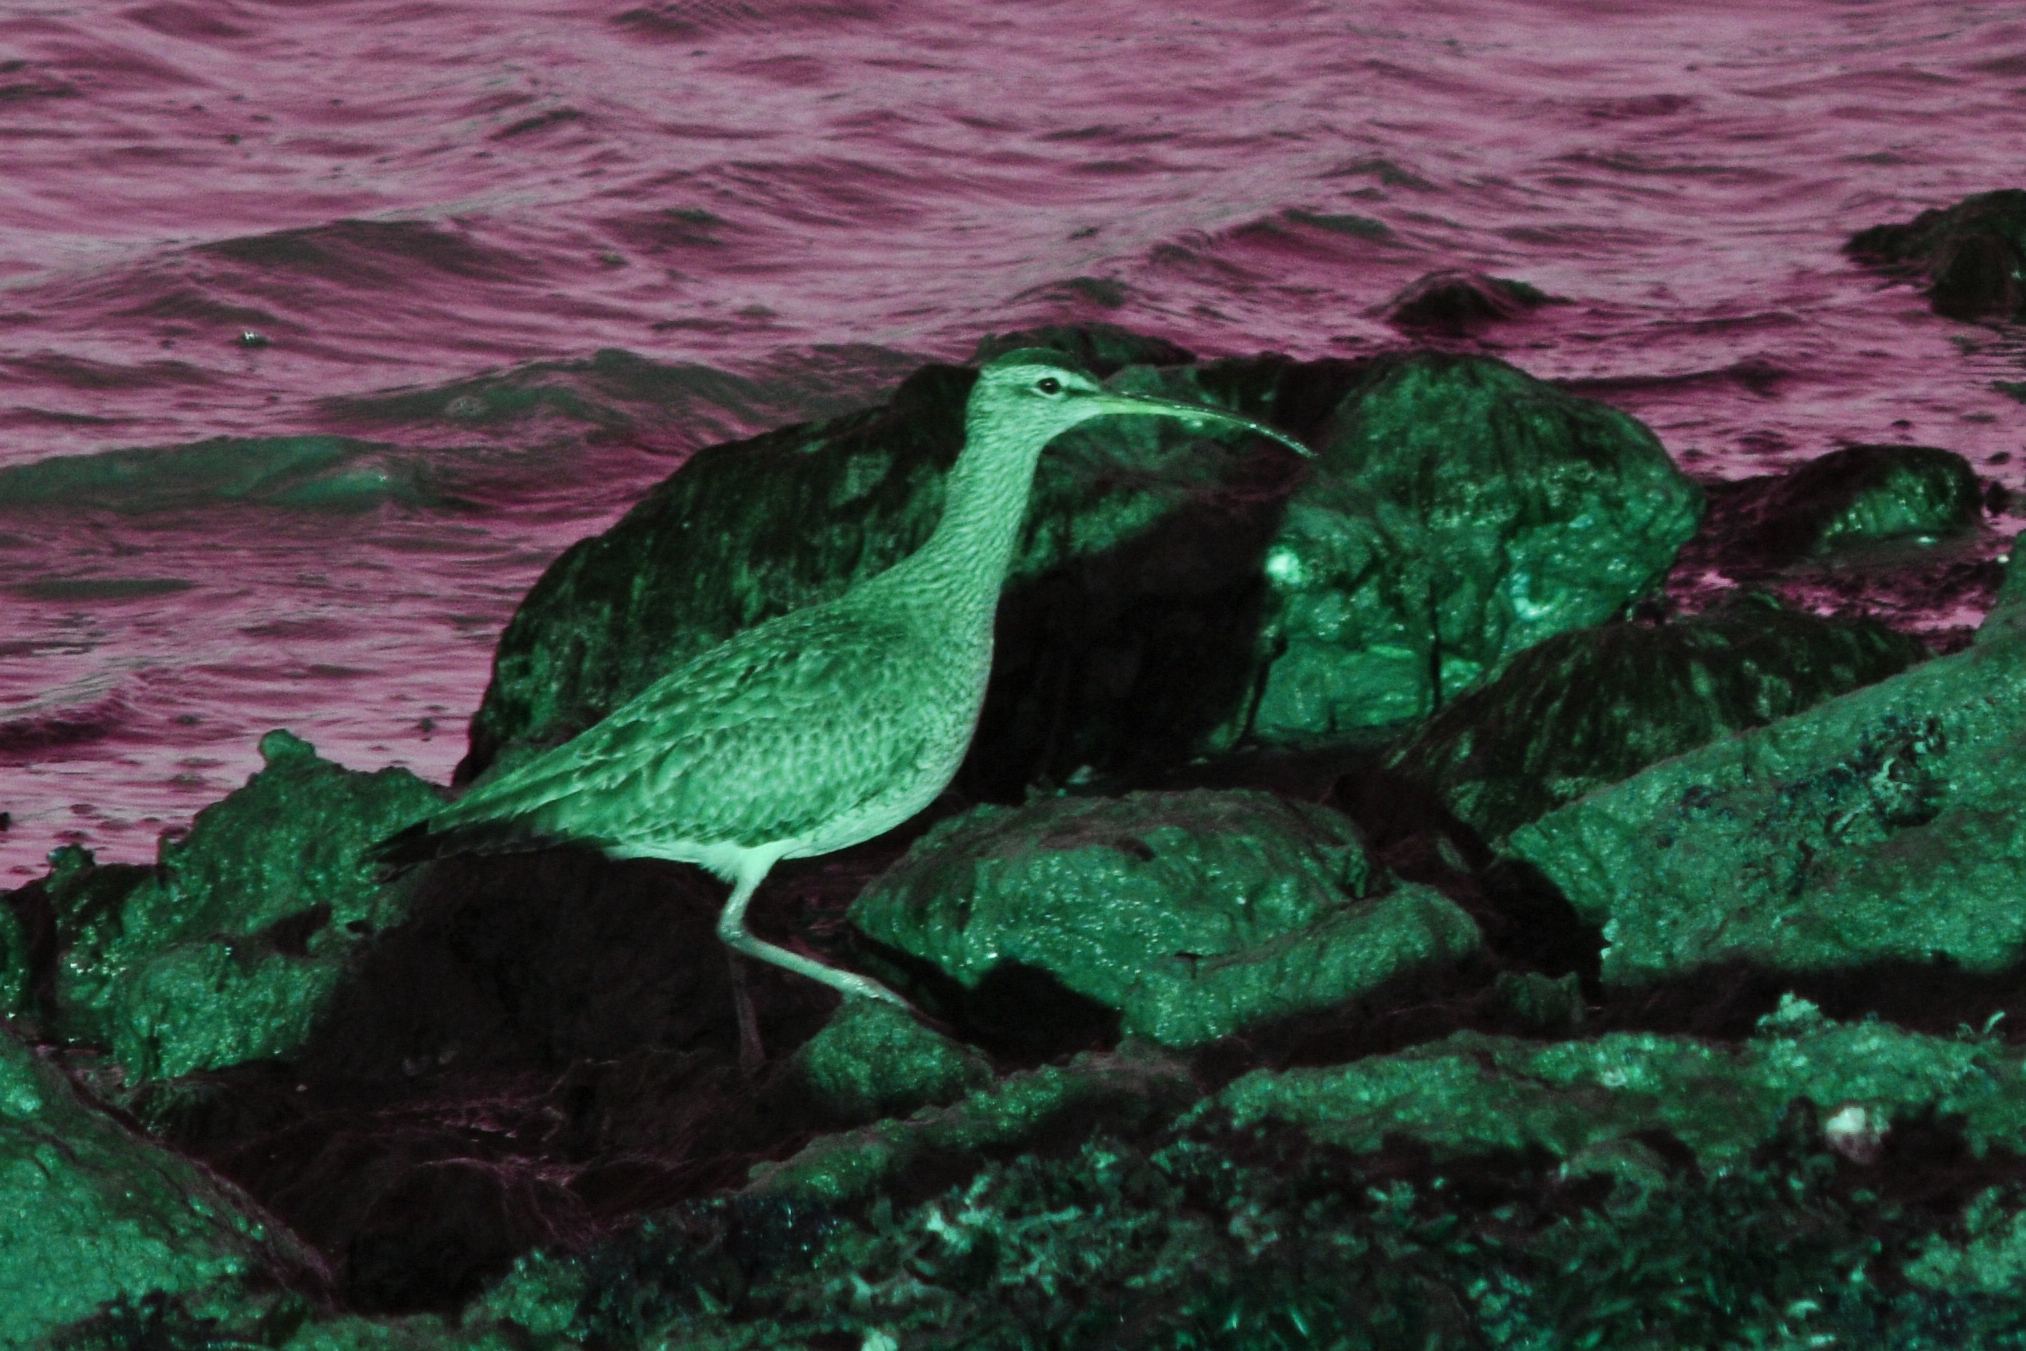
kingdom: Animalia
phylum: Chordata
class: Aves
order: Charadriiformes
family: Scolopacidae
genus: Numenius
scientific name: Numenius phaeopus
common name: Whimbrel
